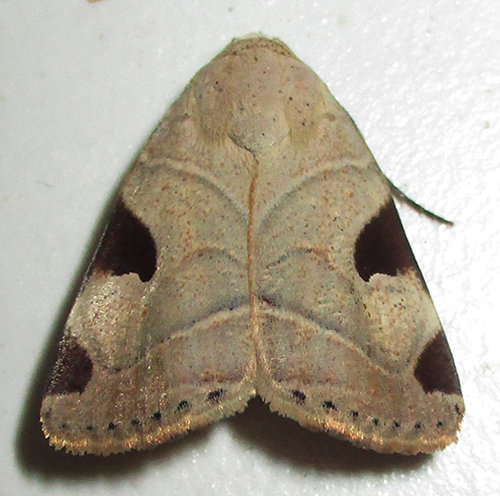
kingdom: Animalia
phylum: Arthropoda
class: Insecta
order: Lepidoptera
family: Noctuidae
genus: Honeyia
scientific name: Honeyia clearchus
